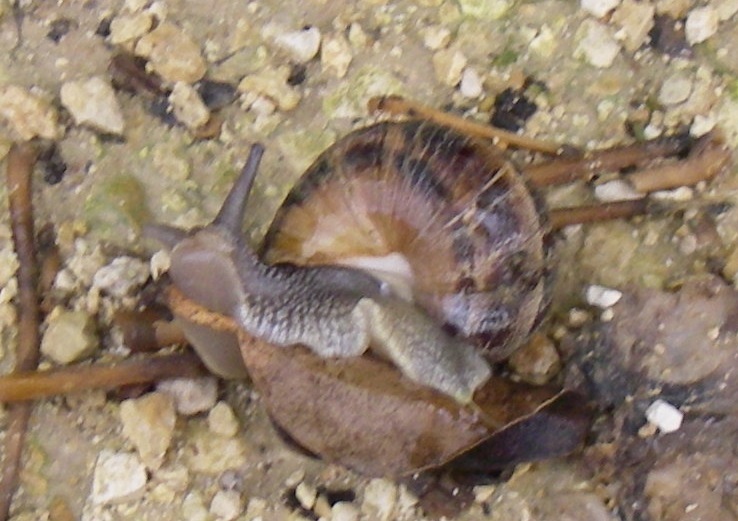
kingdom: Animalia
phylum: Mollusca
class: Gastropoda
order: Stylommatophora
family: Helicidae
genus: Cornu
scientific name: Cornu aspersum
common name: Brown garden snail
